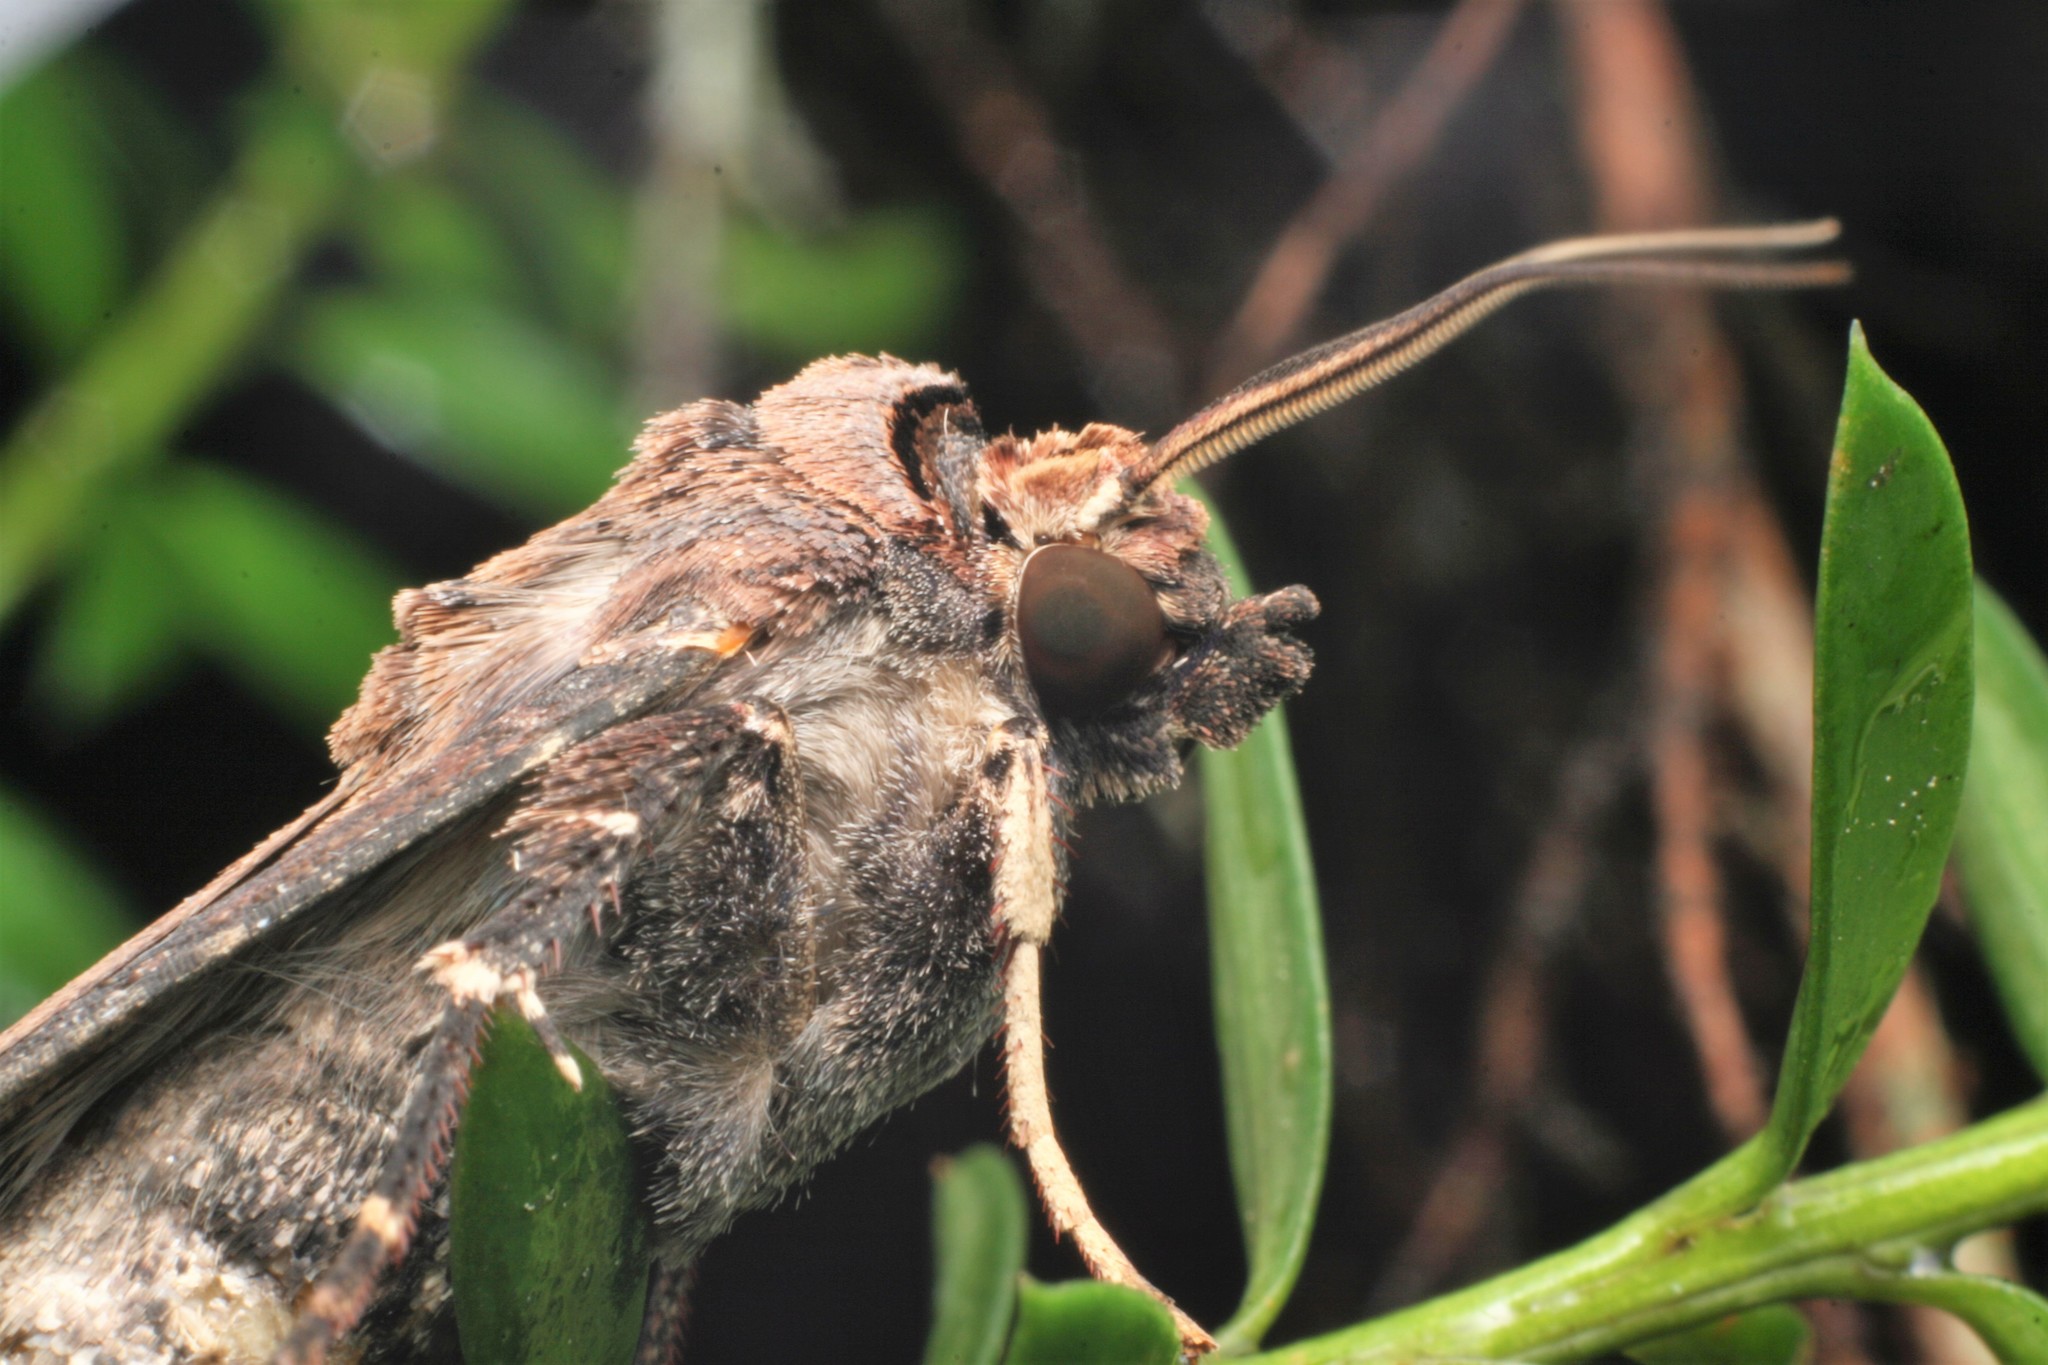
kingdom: Animalia
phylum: Arthropoda
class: Insecta
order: Lepidoptera
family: Noctuidae
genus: Agrotis
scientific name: Agrotis ipsilon
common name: Dark sword-grass
